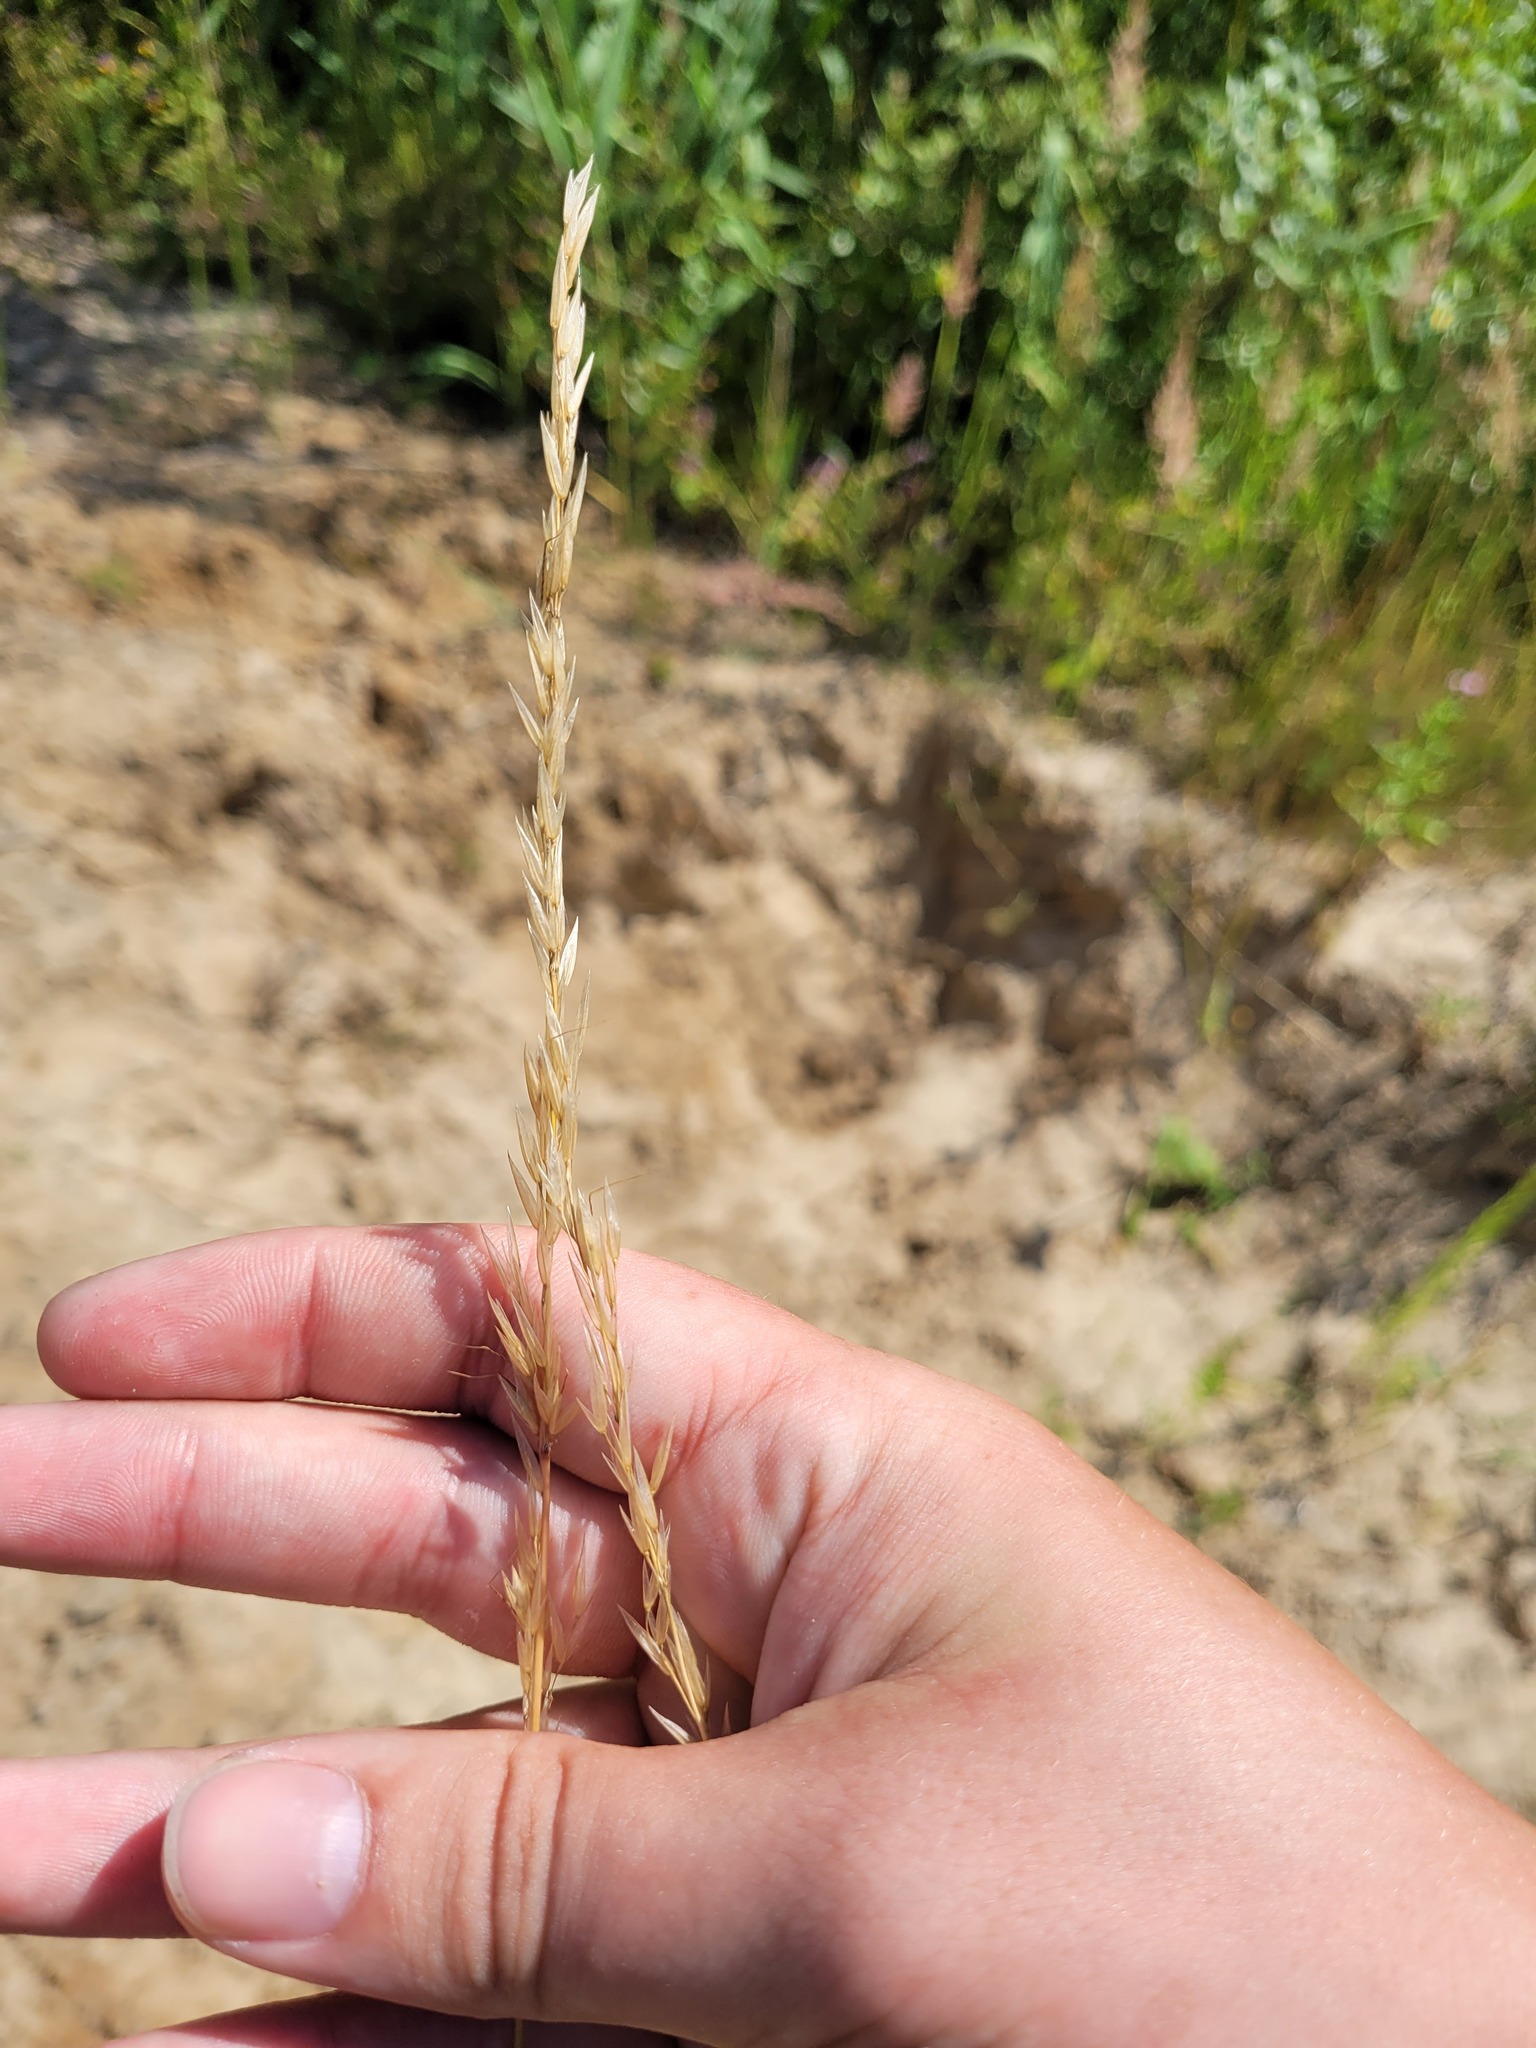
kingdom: Plantae
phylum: Tracheophyta
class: Liliopsida
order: Poales
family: Poaceae
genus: Arrhenatherum
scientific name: Arrhenatherum elatius
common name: Tall oatgrass
